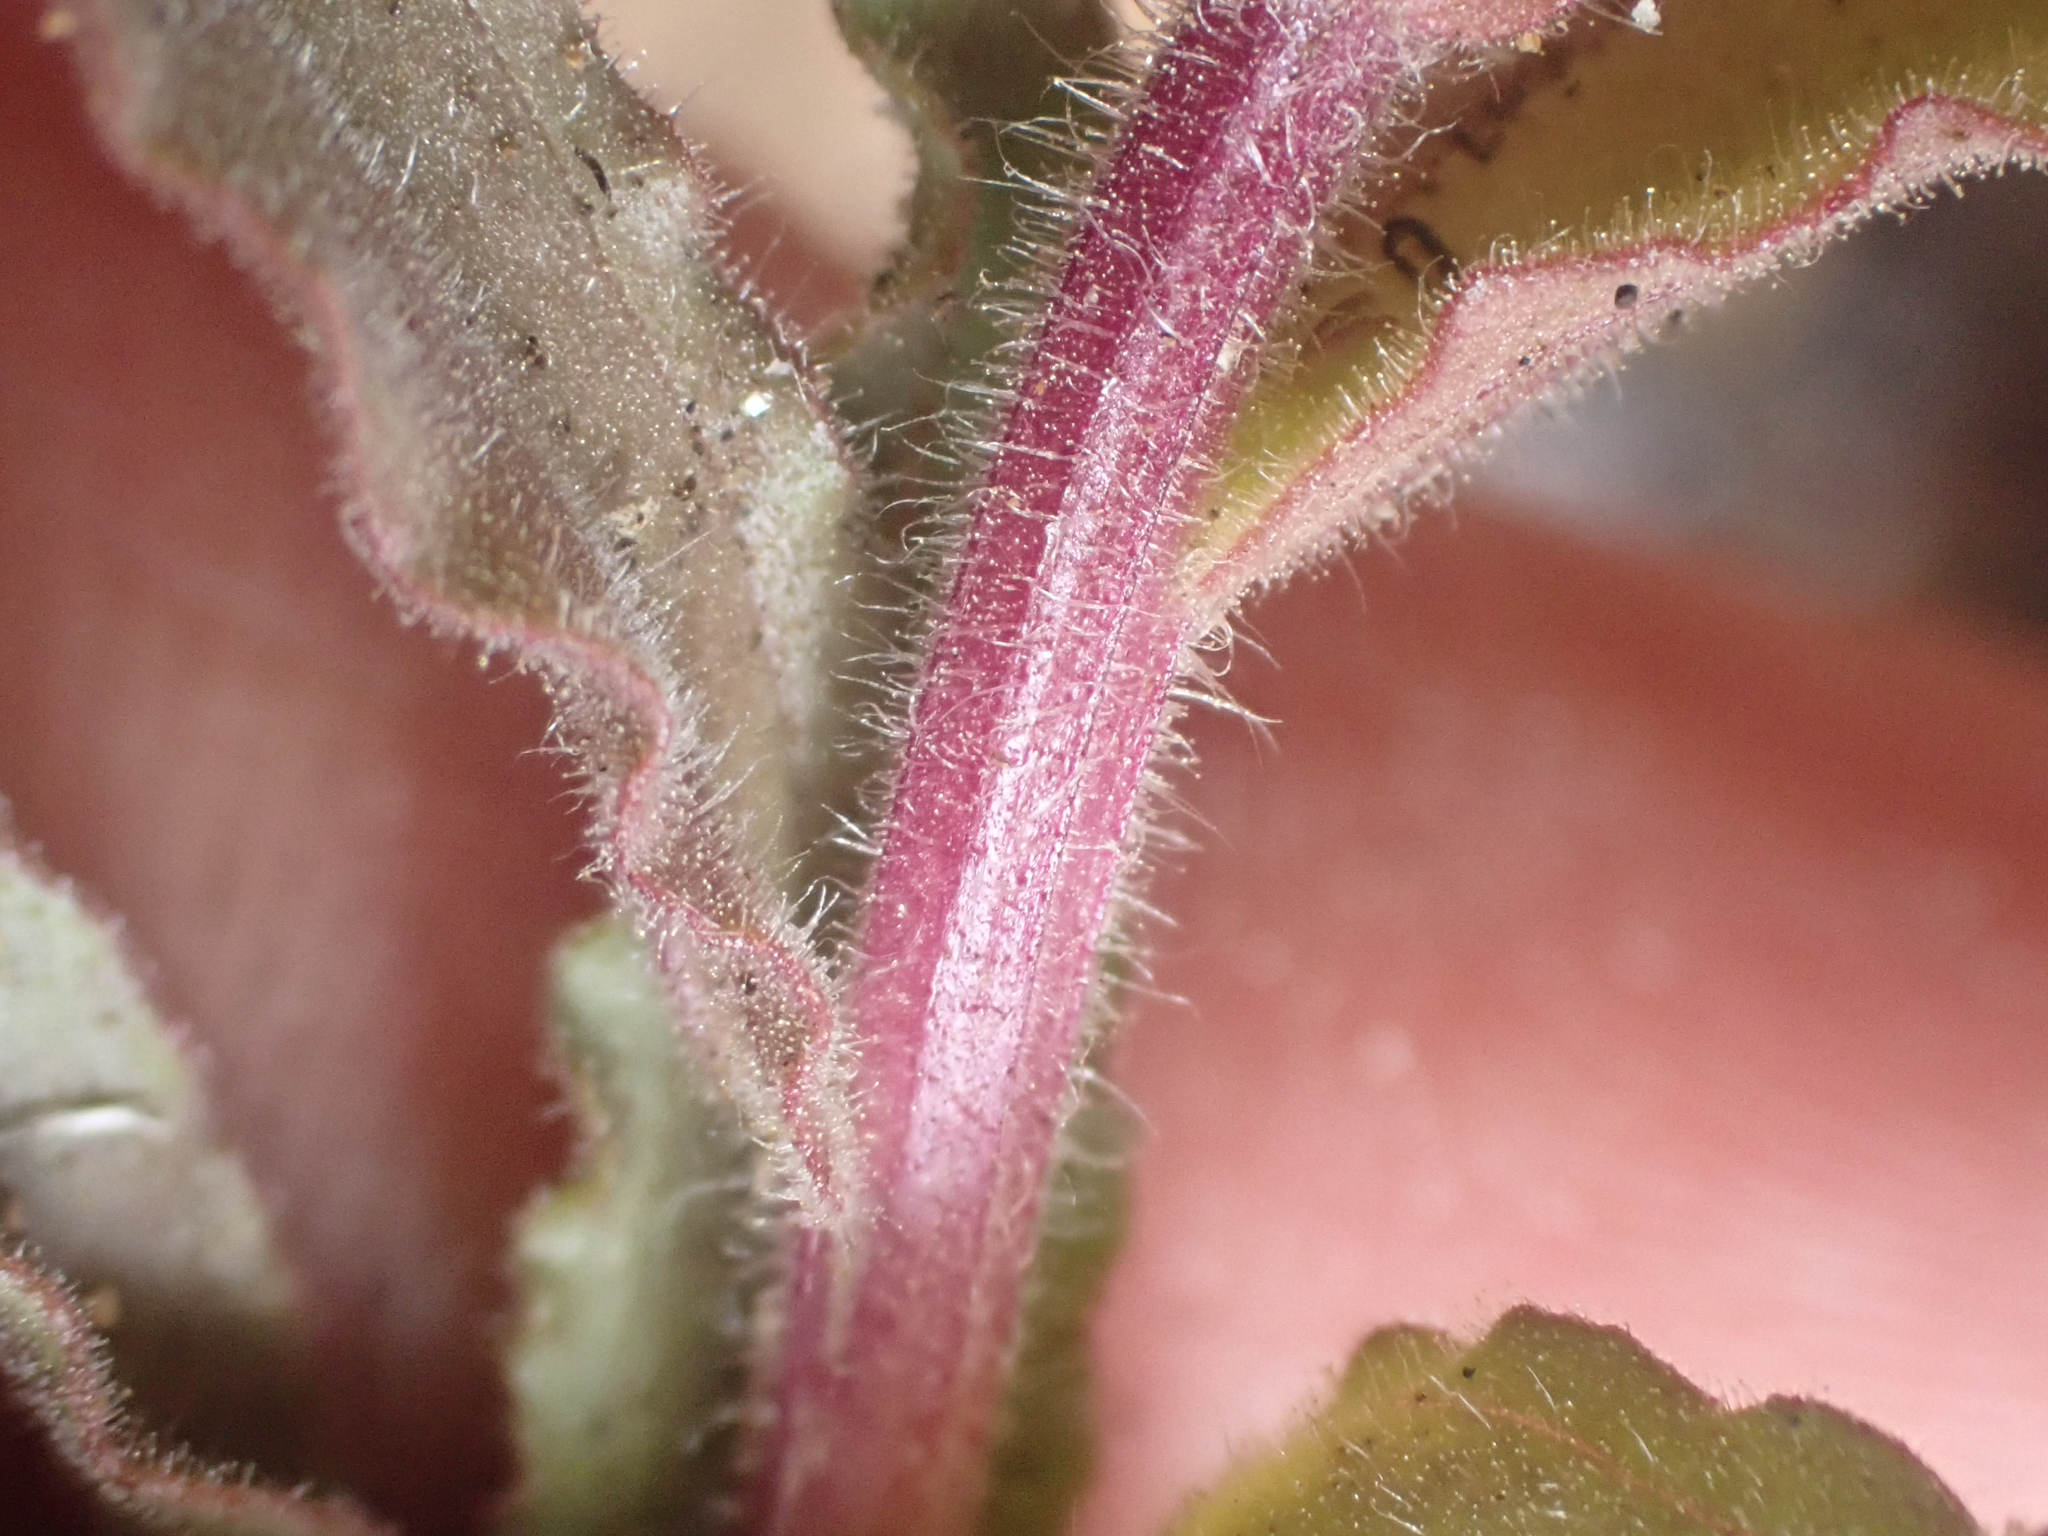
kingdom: Plantae
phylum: Tracheophyta
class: Magnoliopsida
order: Lamiales
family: Orobanchaceae
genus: Castilleja
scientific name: Castilleja martini
